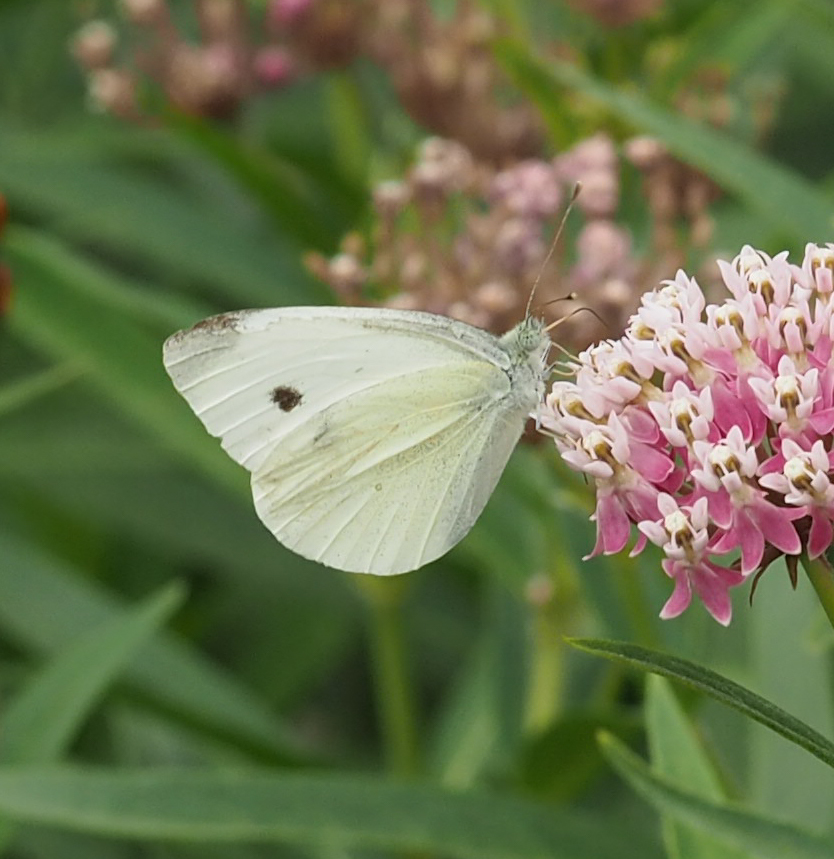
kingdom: Animalia
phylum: Arthropoda
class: Insecta
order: Lepidoptera
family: Pieridae
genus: Pieris
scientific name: Pieris rapae
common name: Small white
